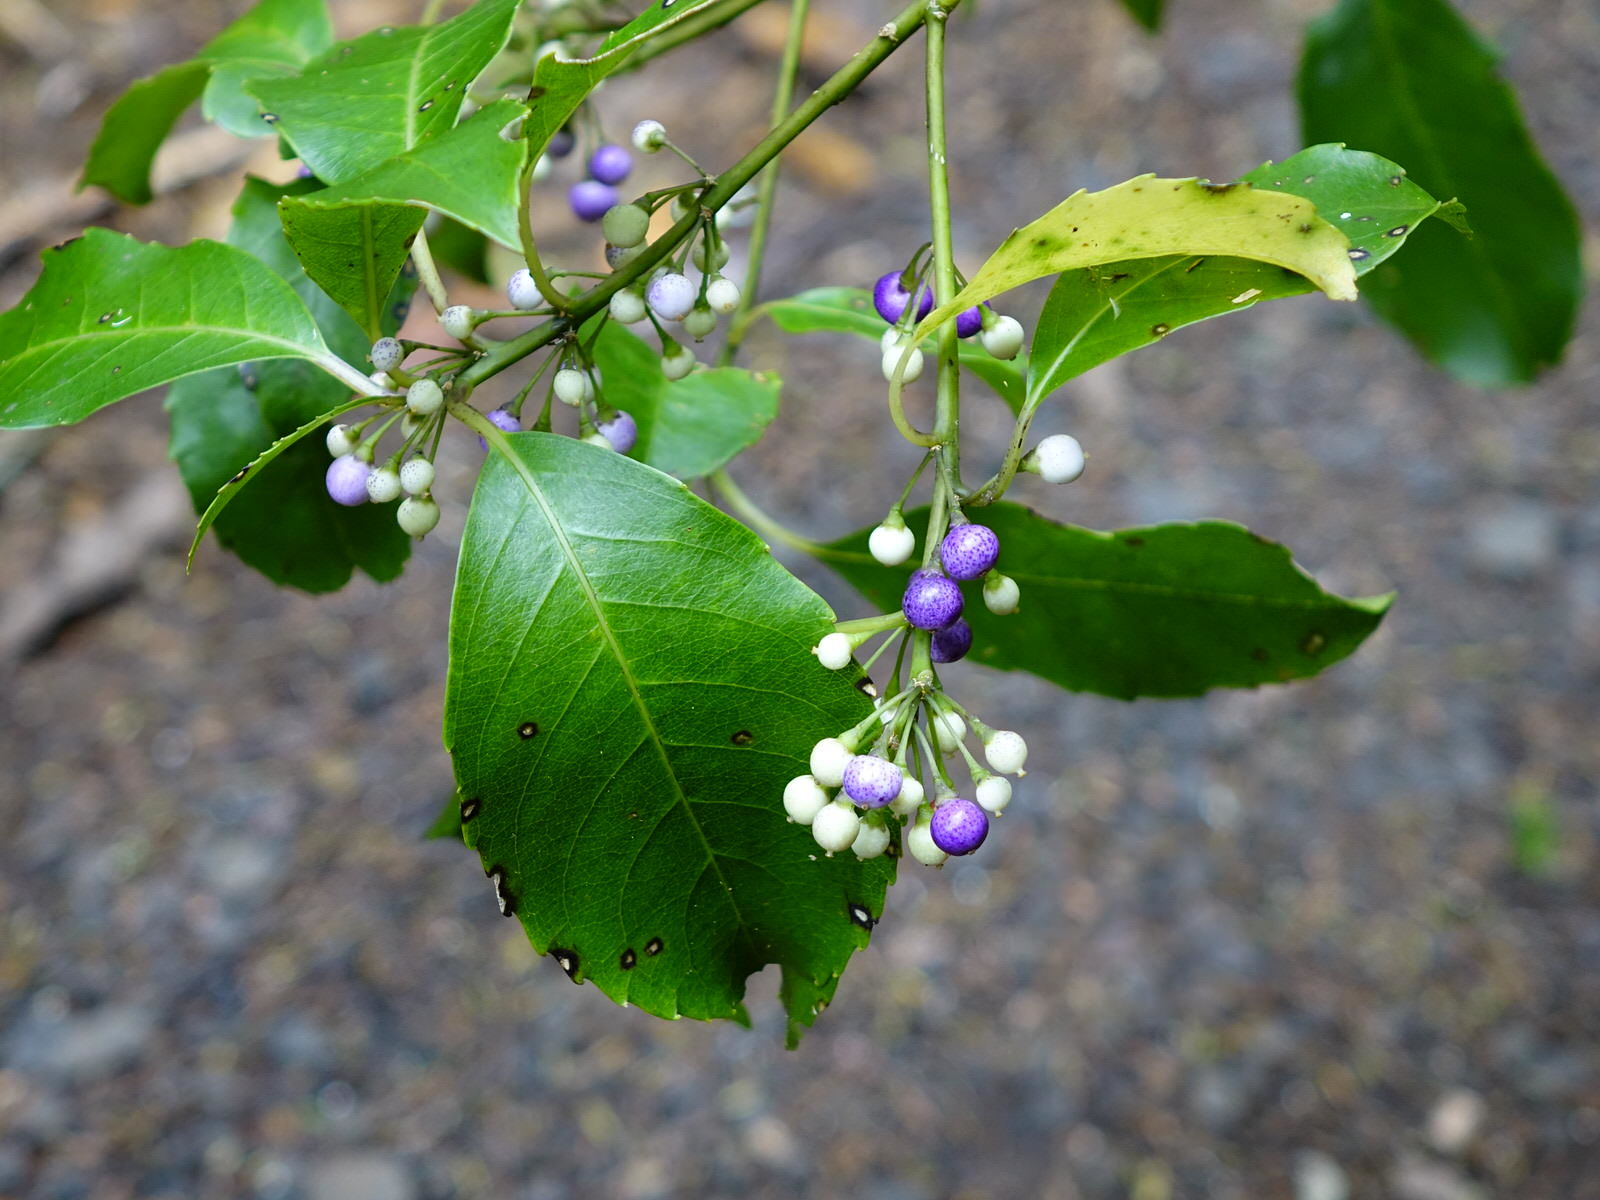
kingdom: Plantae
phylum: Tracheophyta
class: Magnoliopsida
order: Malpighiales
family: Violaceae
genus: Melicytus
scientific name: Melicytus macrophyllus
